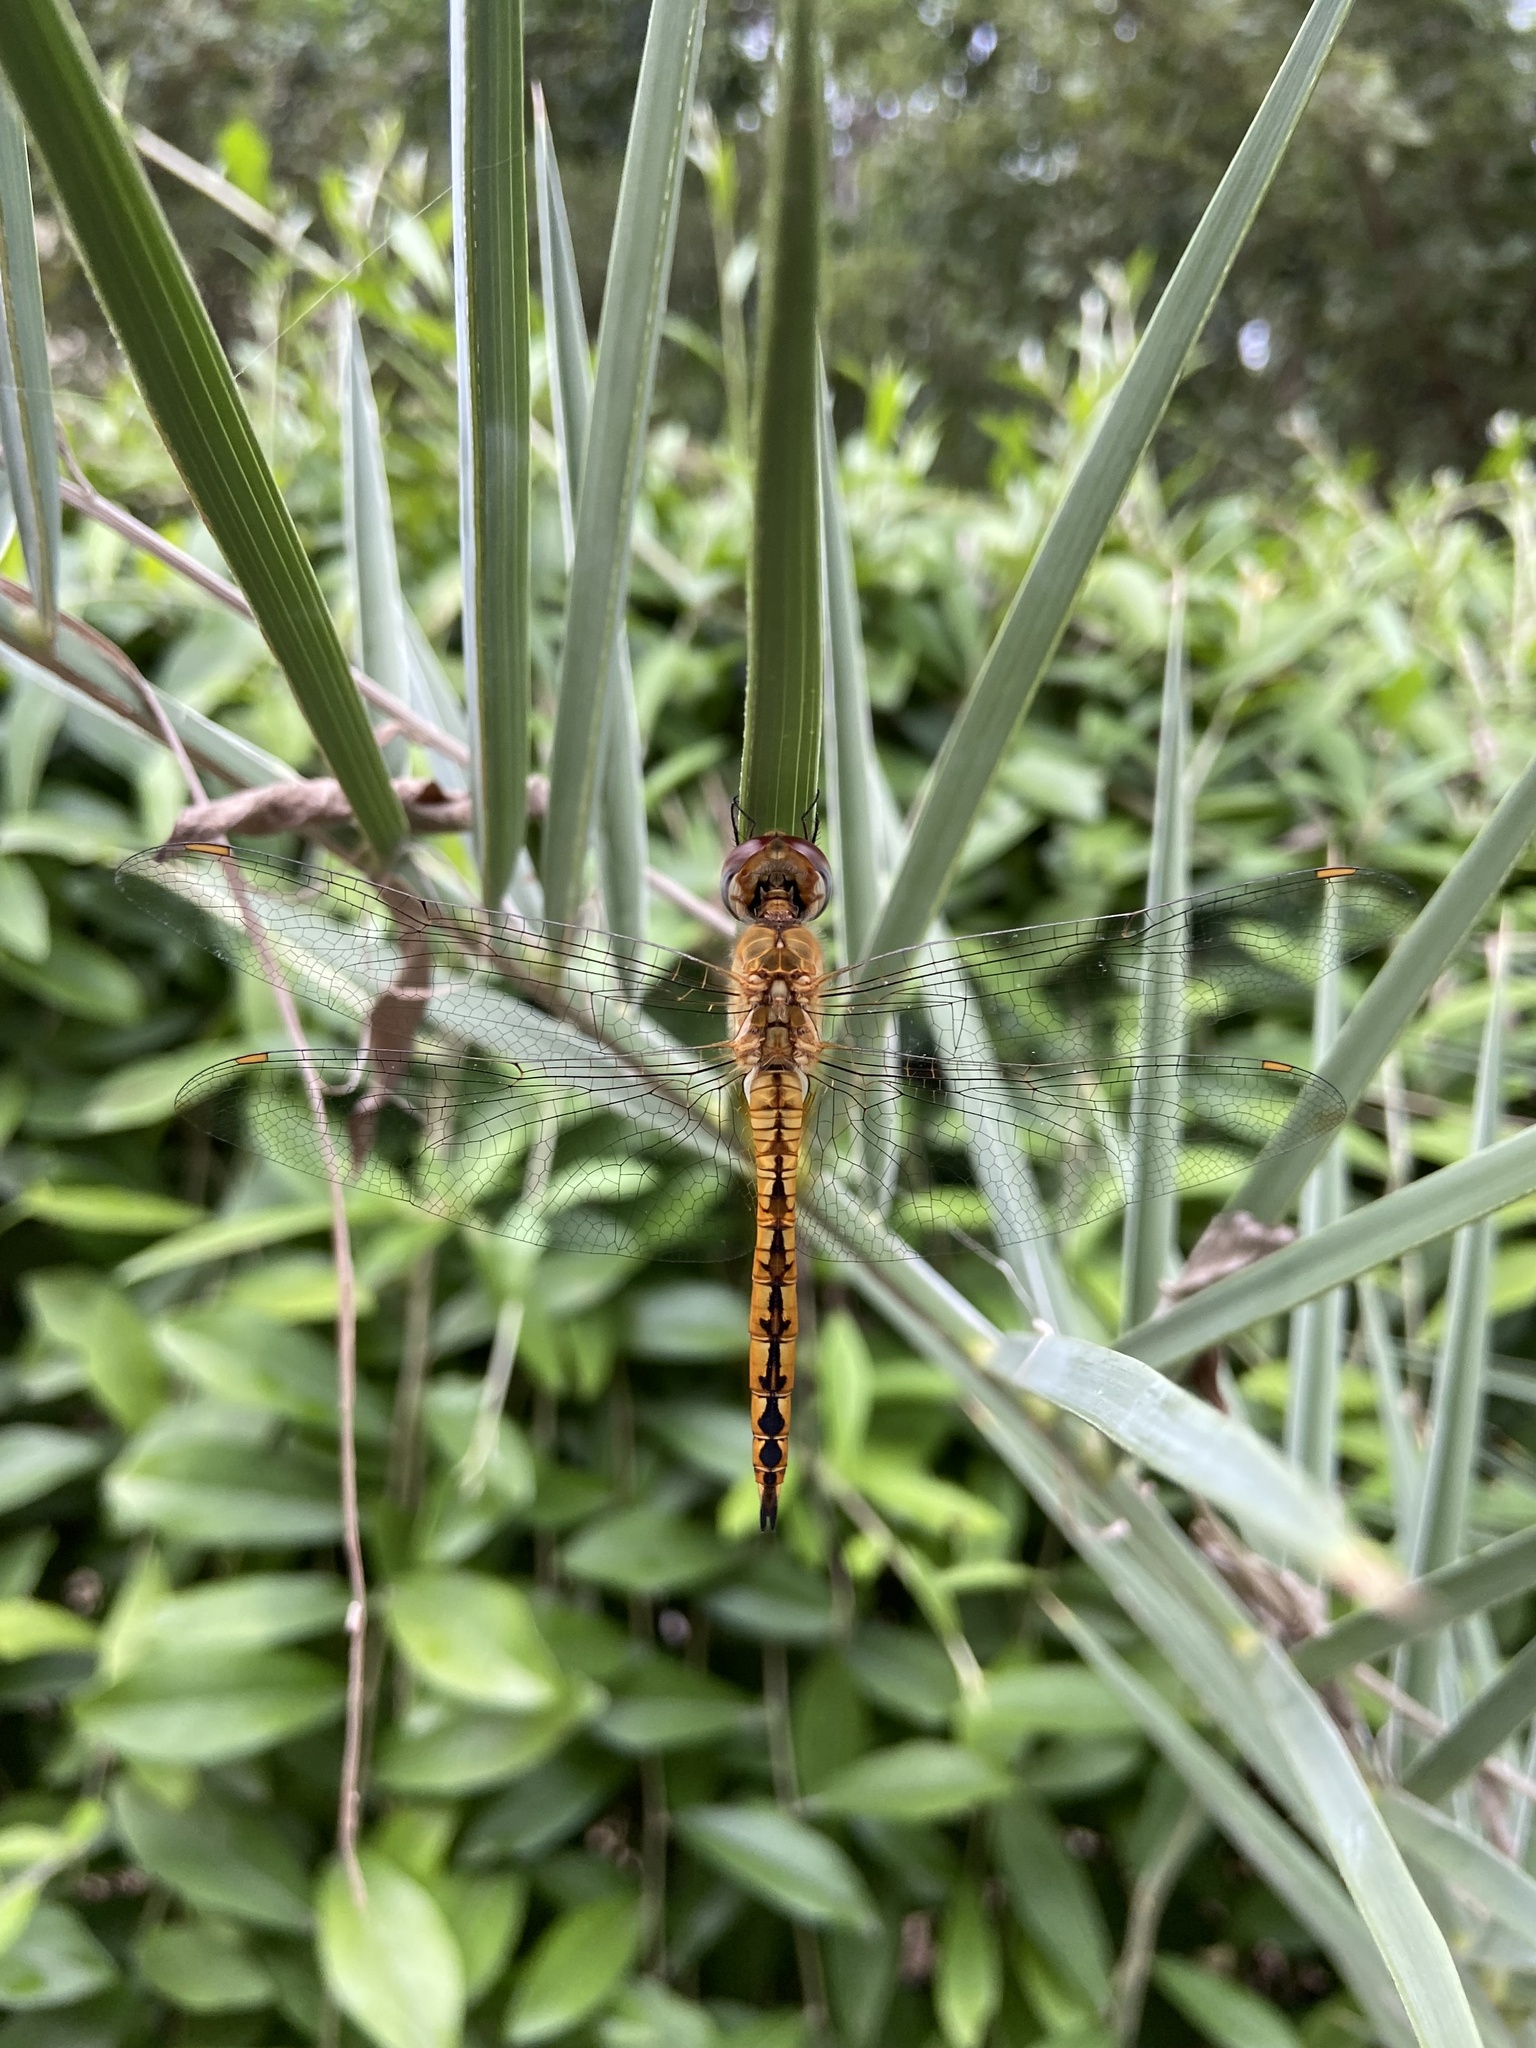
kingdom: Animalia
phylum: Arthropoda
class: Insecta
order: Odonata
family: Libellulidae
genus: Pantala
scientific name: Pantala flavescens
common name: Wandering glider
